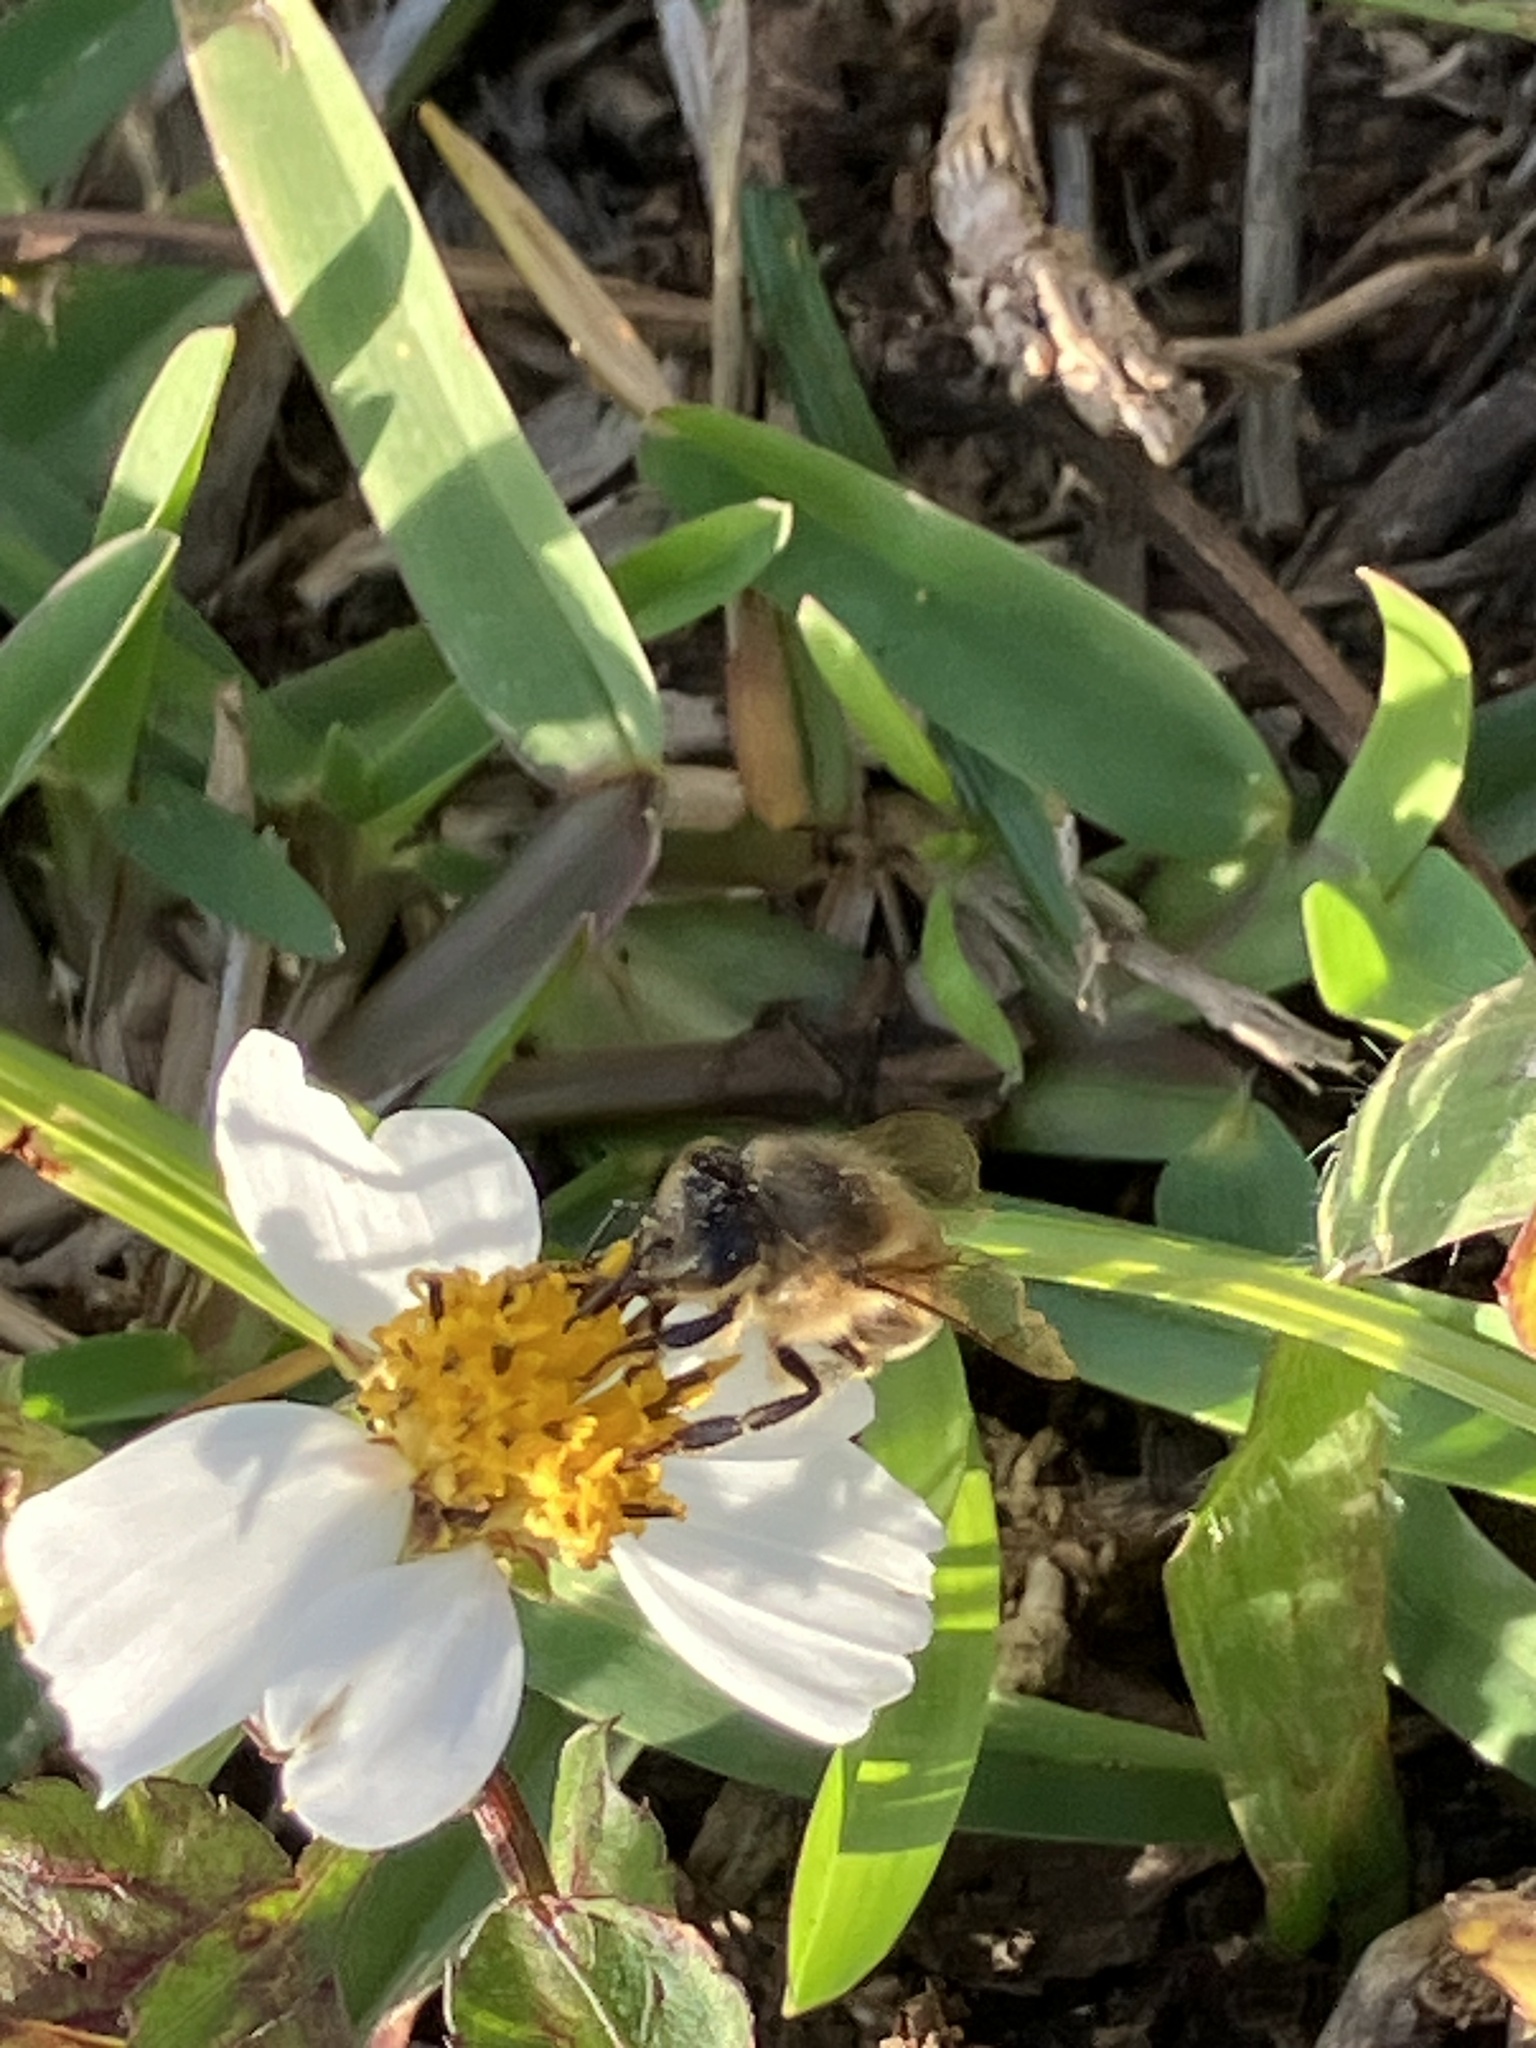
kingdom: Animalia
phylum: Arthropoda
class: Insecta
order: Hymenoptera
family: Apidae
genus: Apis
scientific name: Apis mellifera
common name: Honey bee
